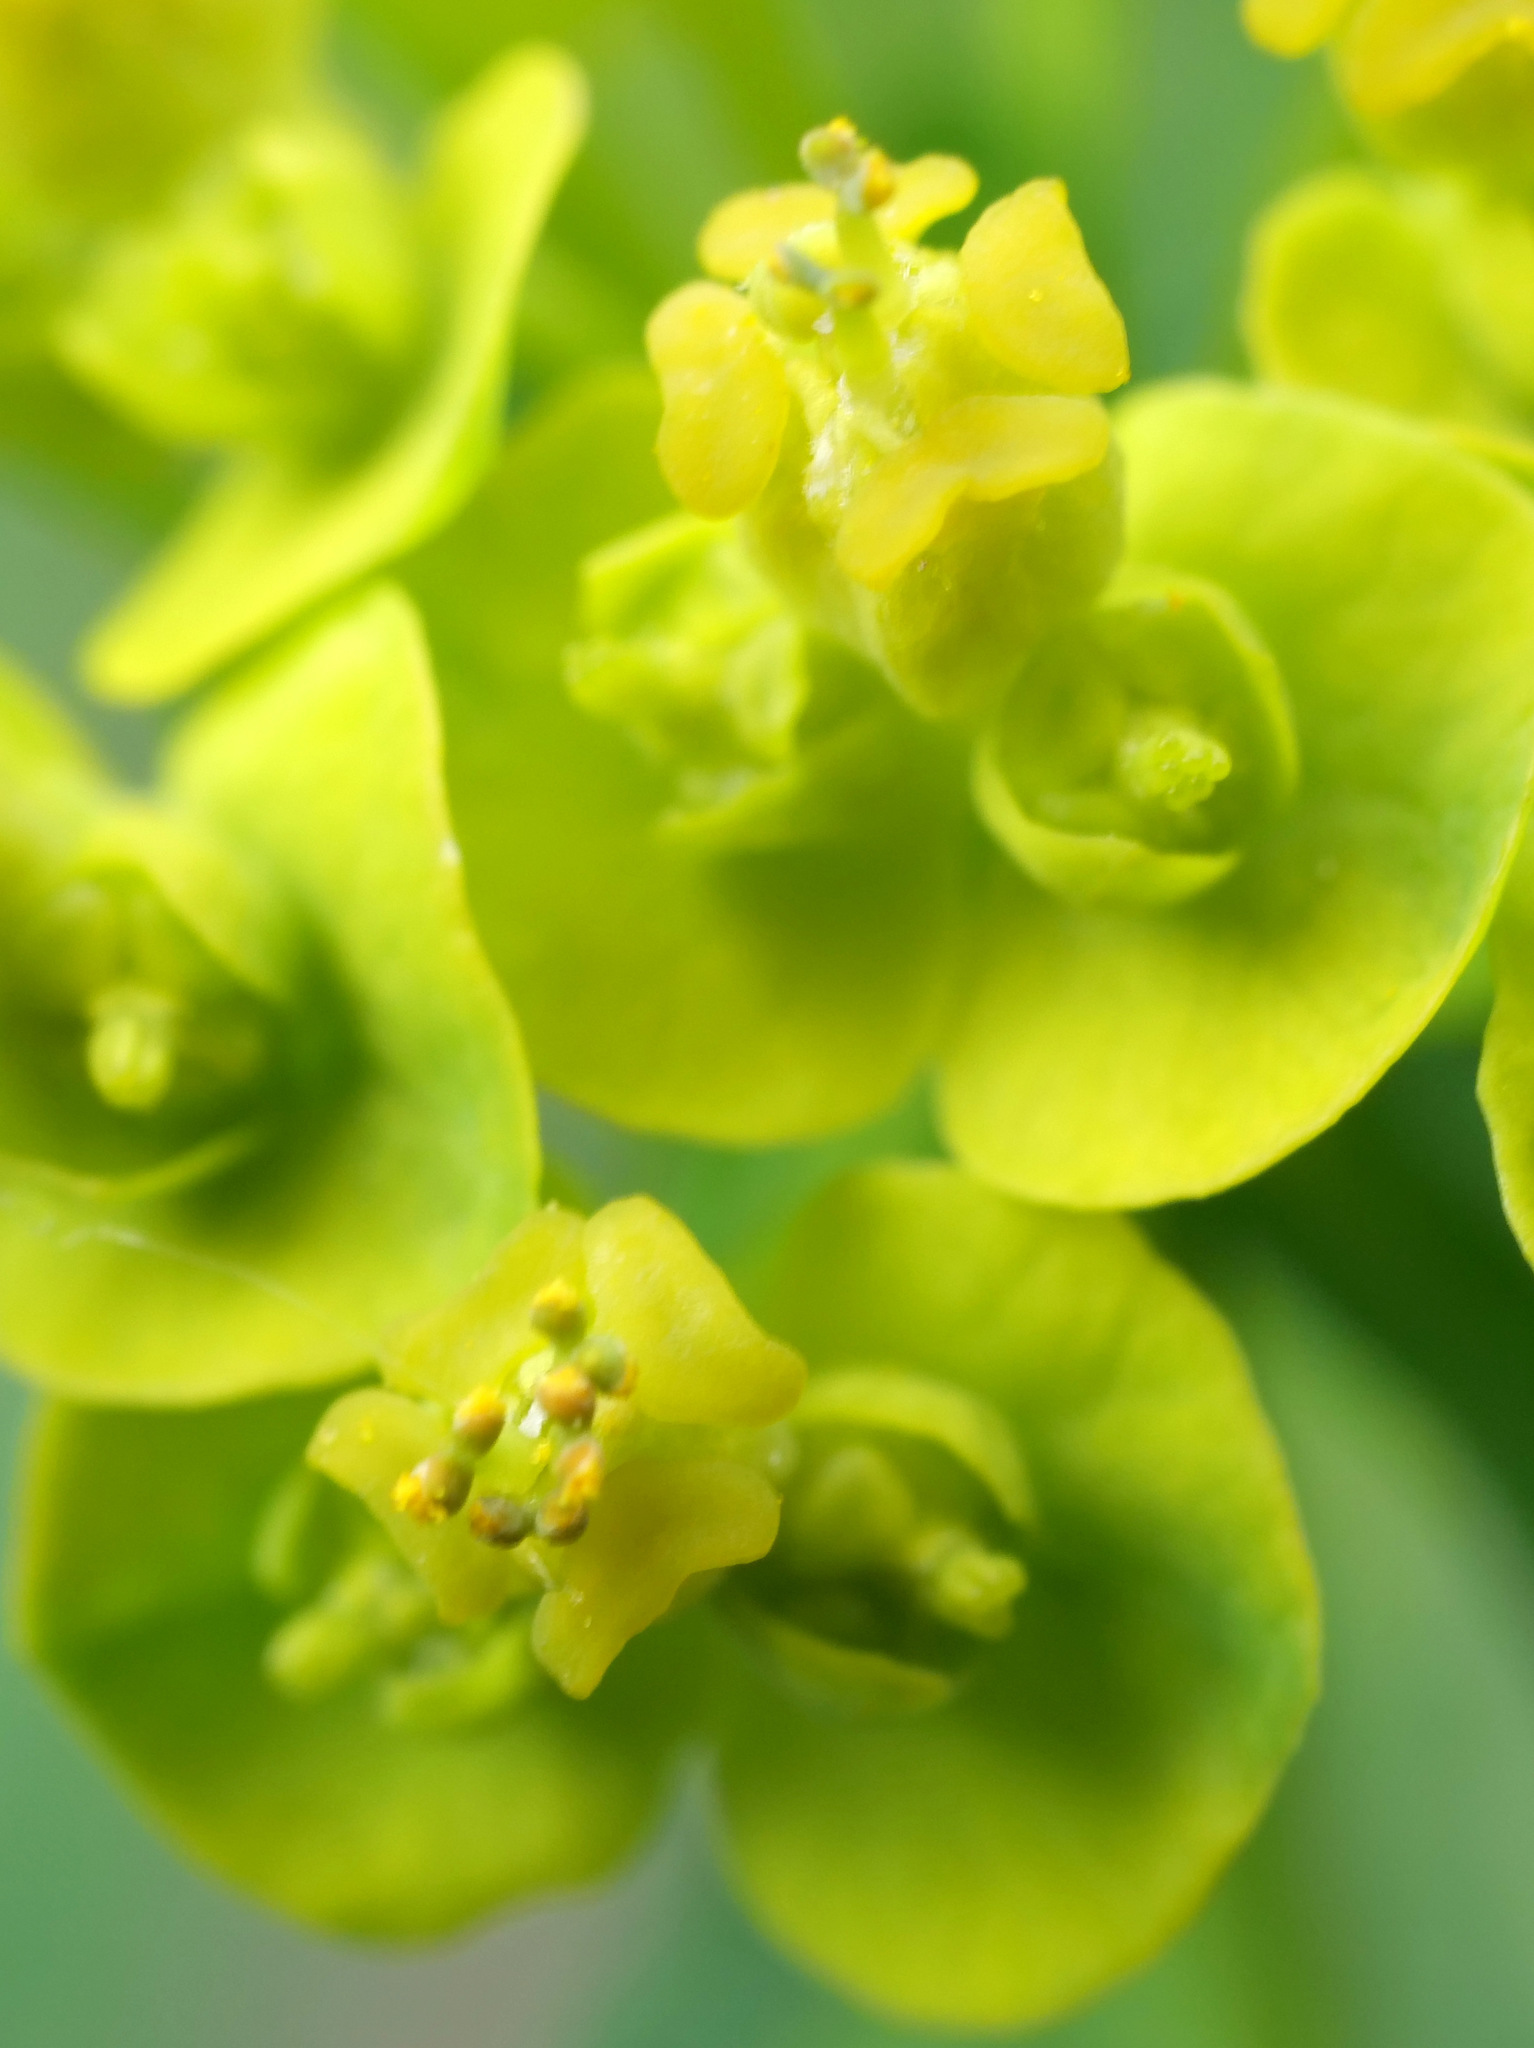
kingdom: Plantae
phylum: Tracheophyta
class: Magnoliopsida
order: Malpighiales
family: Euphorbiaceae
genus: Euphorbia
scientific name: Euphorbia cyparissias
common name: Cypress spurge
